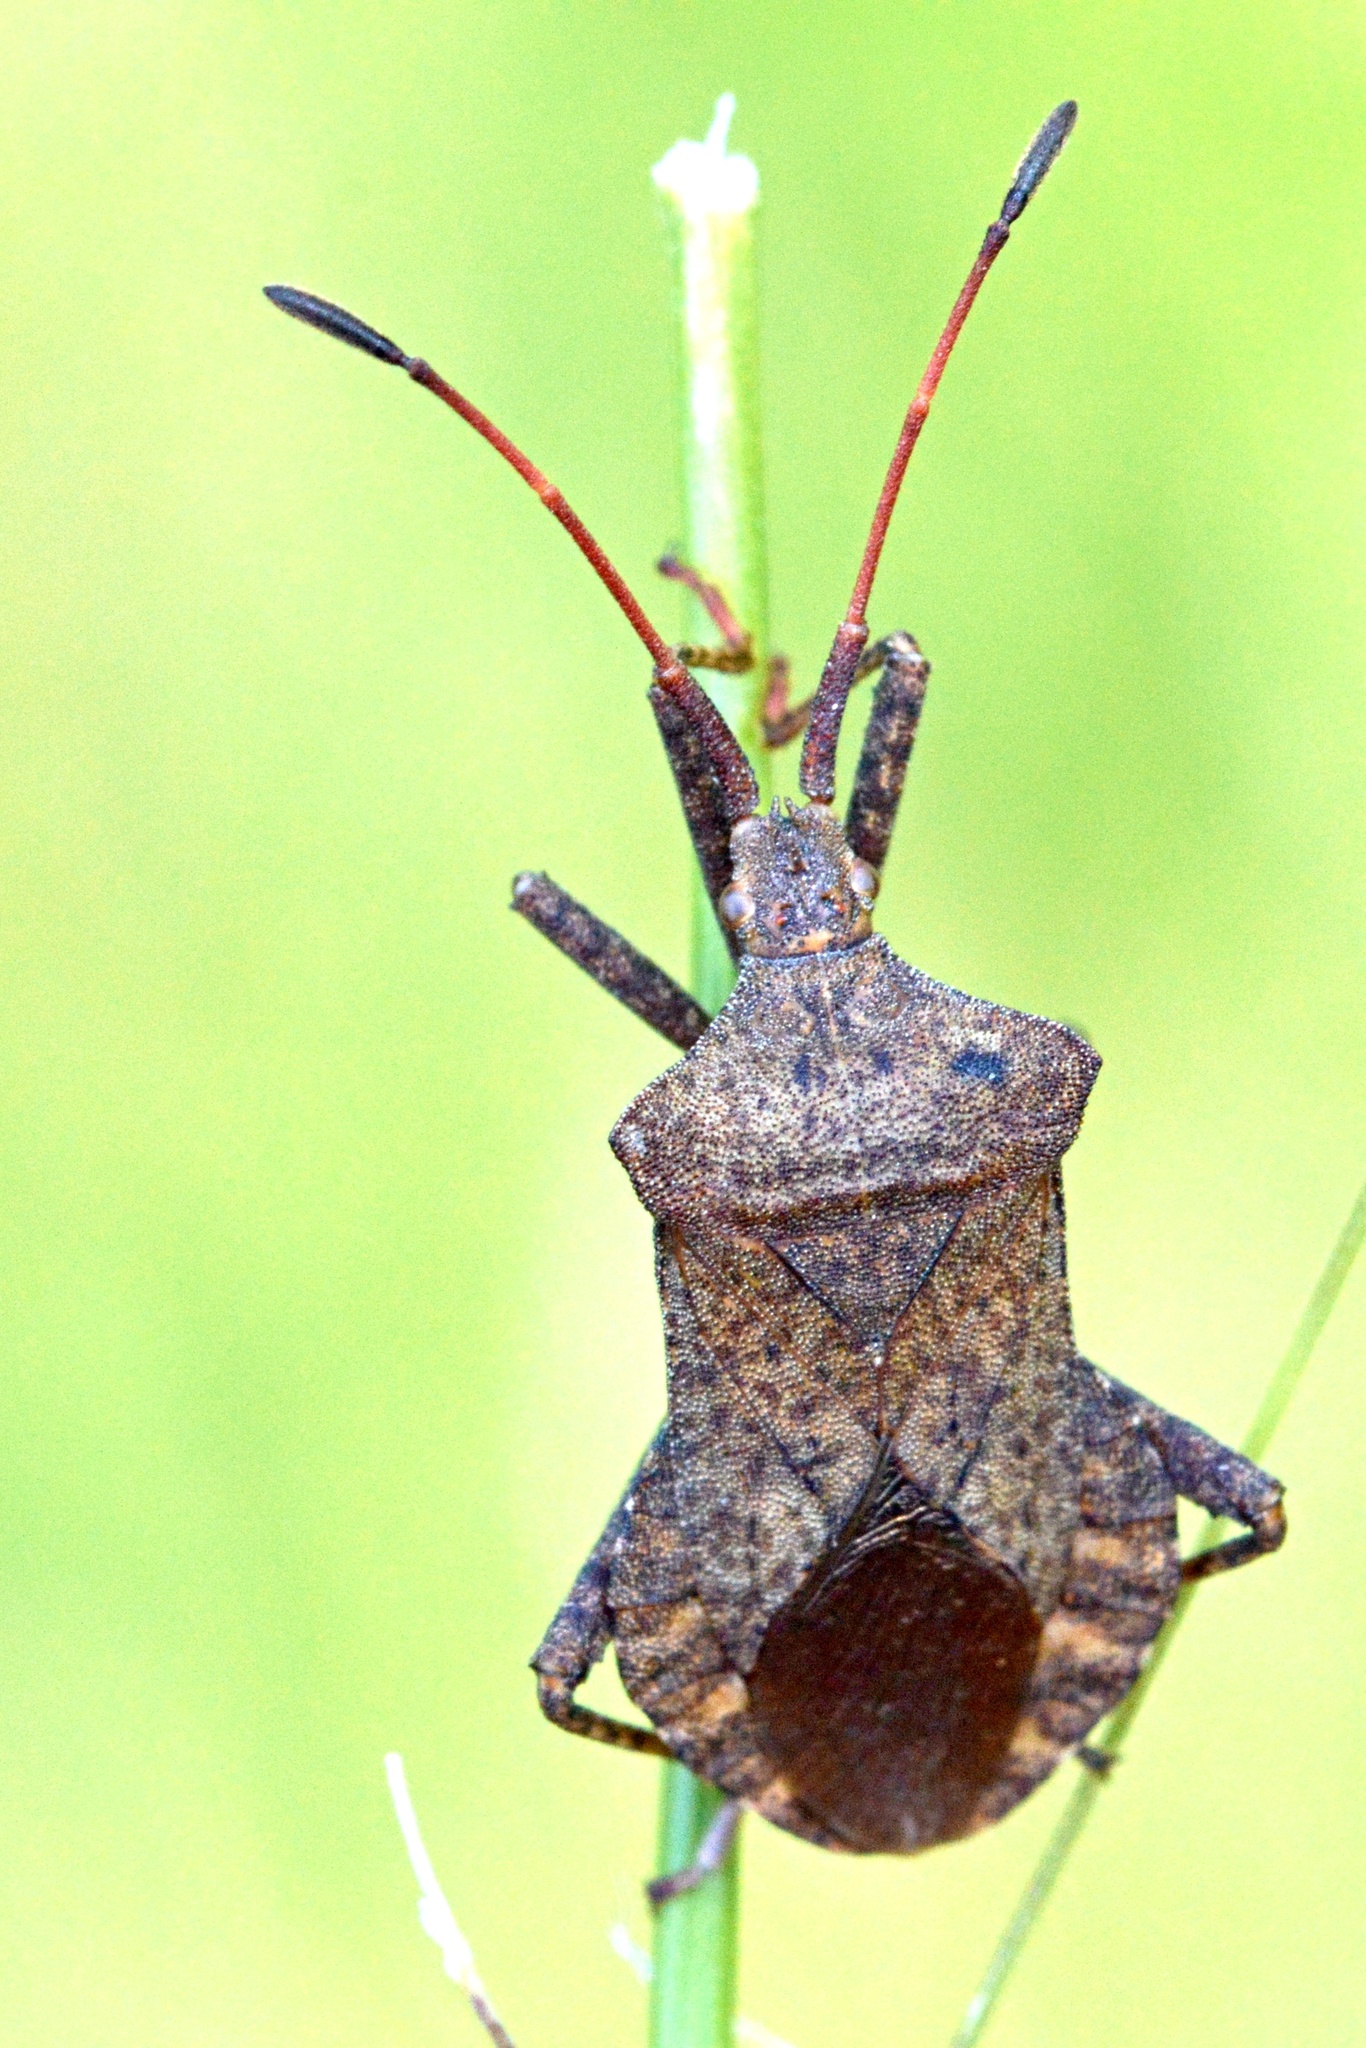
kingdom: Animalia
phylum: Arthropoda
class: Insecta
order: Hemiptera
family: Coreidae
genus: Coreus
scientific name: Coreus marginatus
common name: Dock bug
